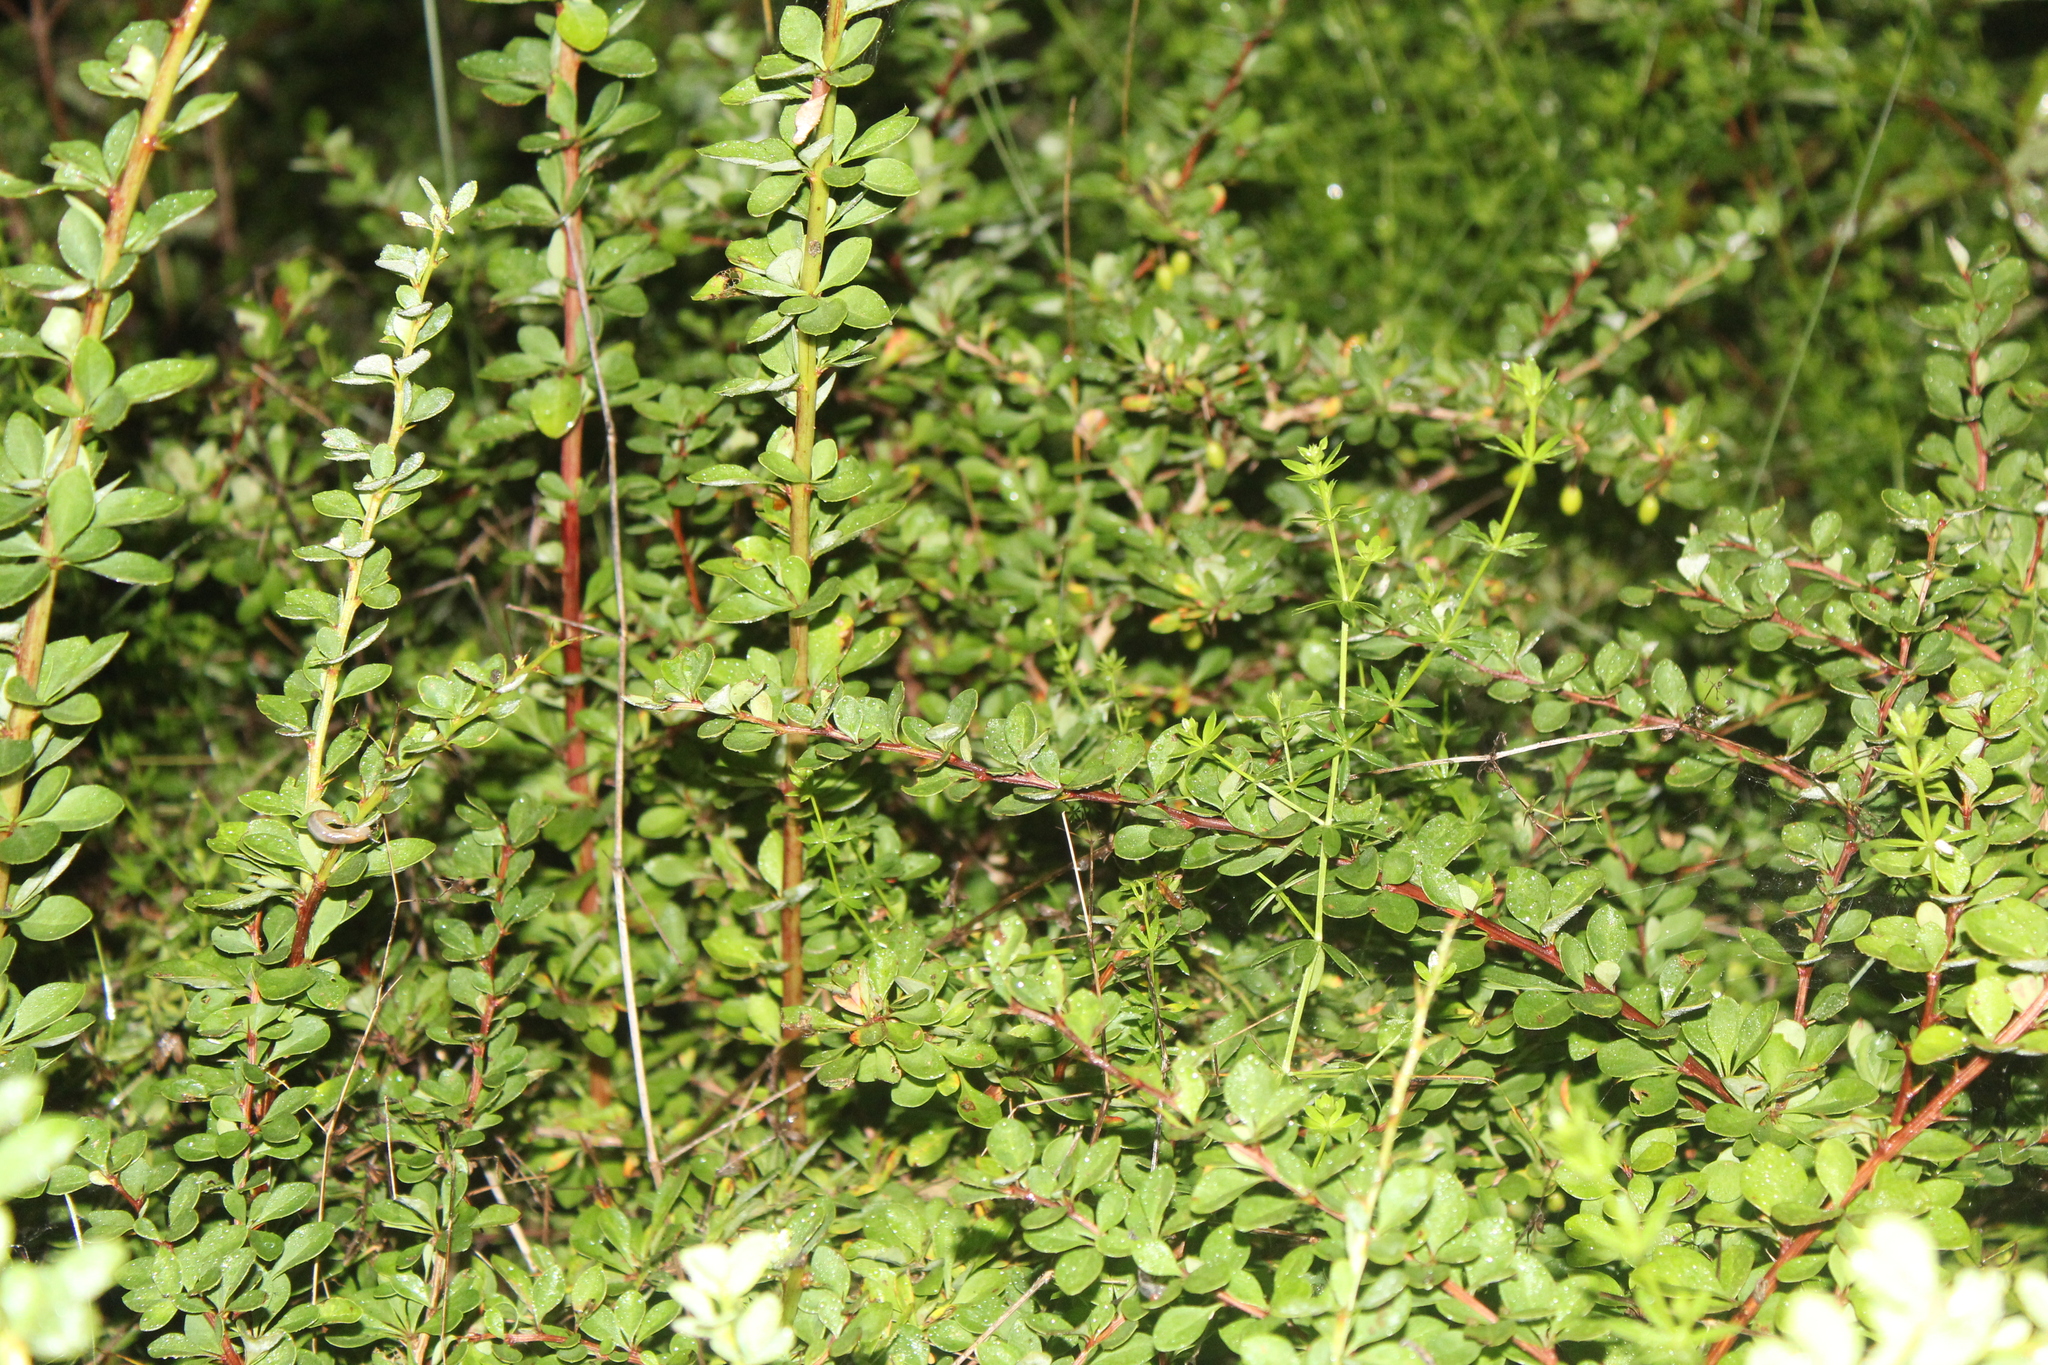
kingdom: Plantae
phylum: Tracheophyta
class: Magnoliopsida
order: Ranunculales
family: Berberidaceae
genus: Berberis
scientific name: Berberis thunbergii
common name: Japanese barberry
